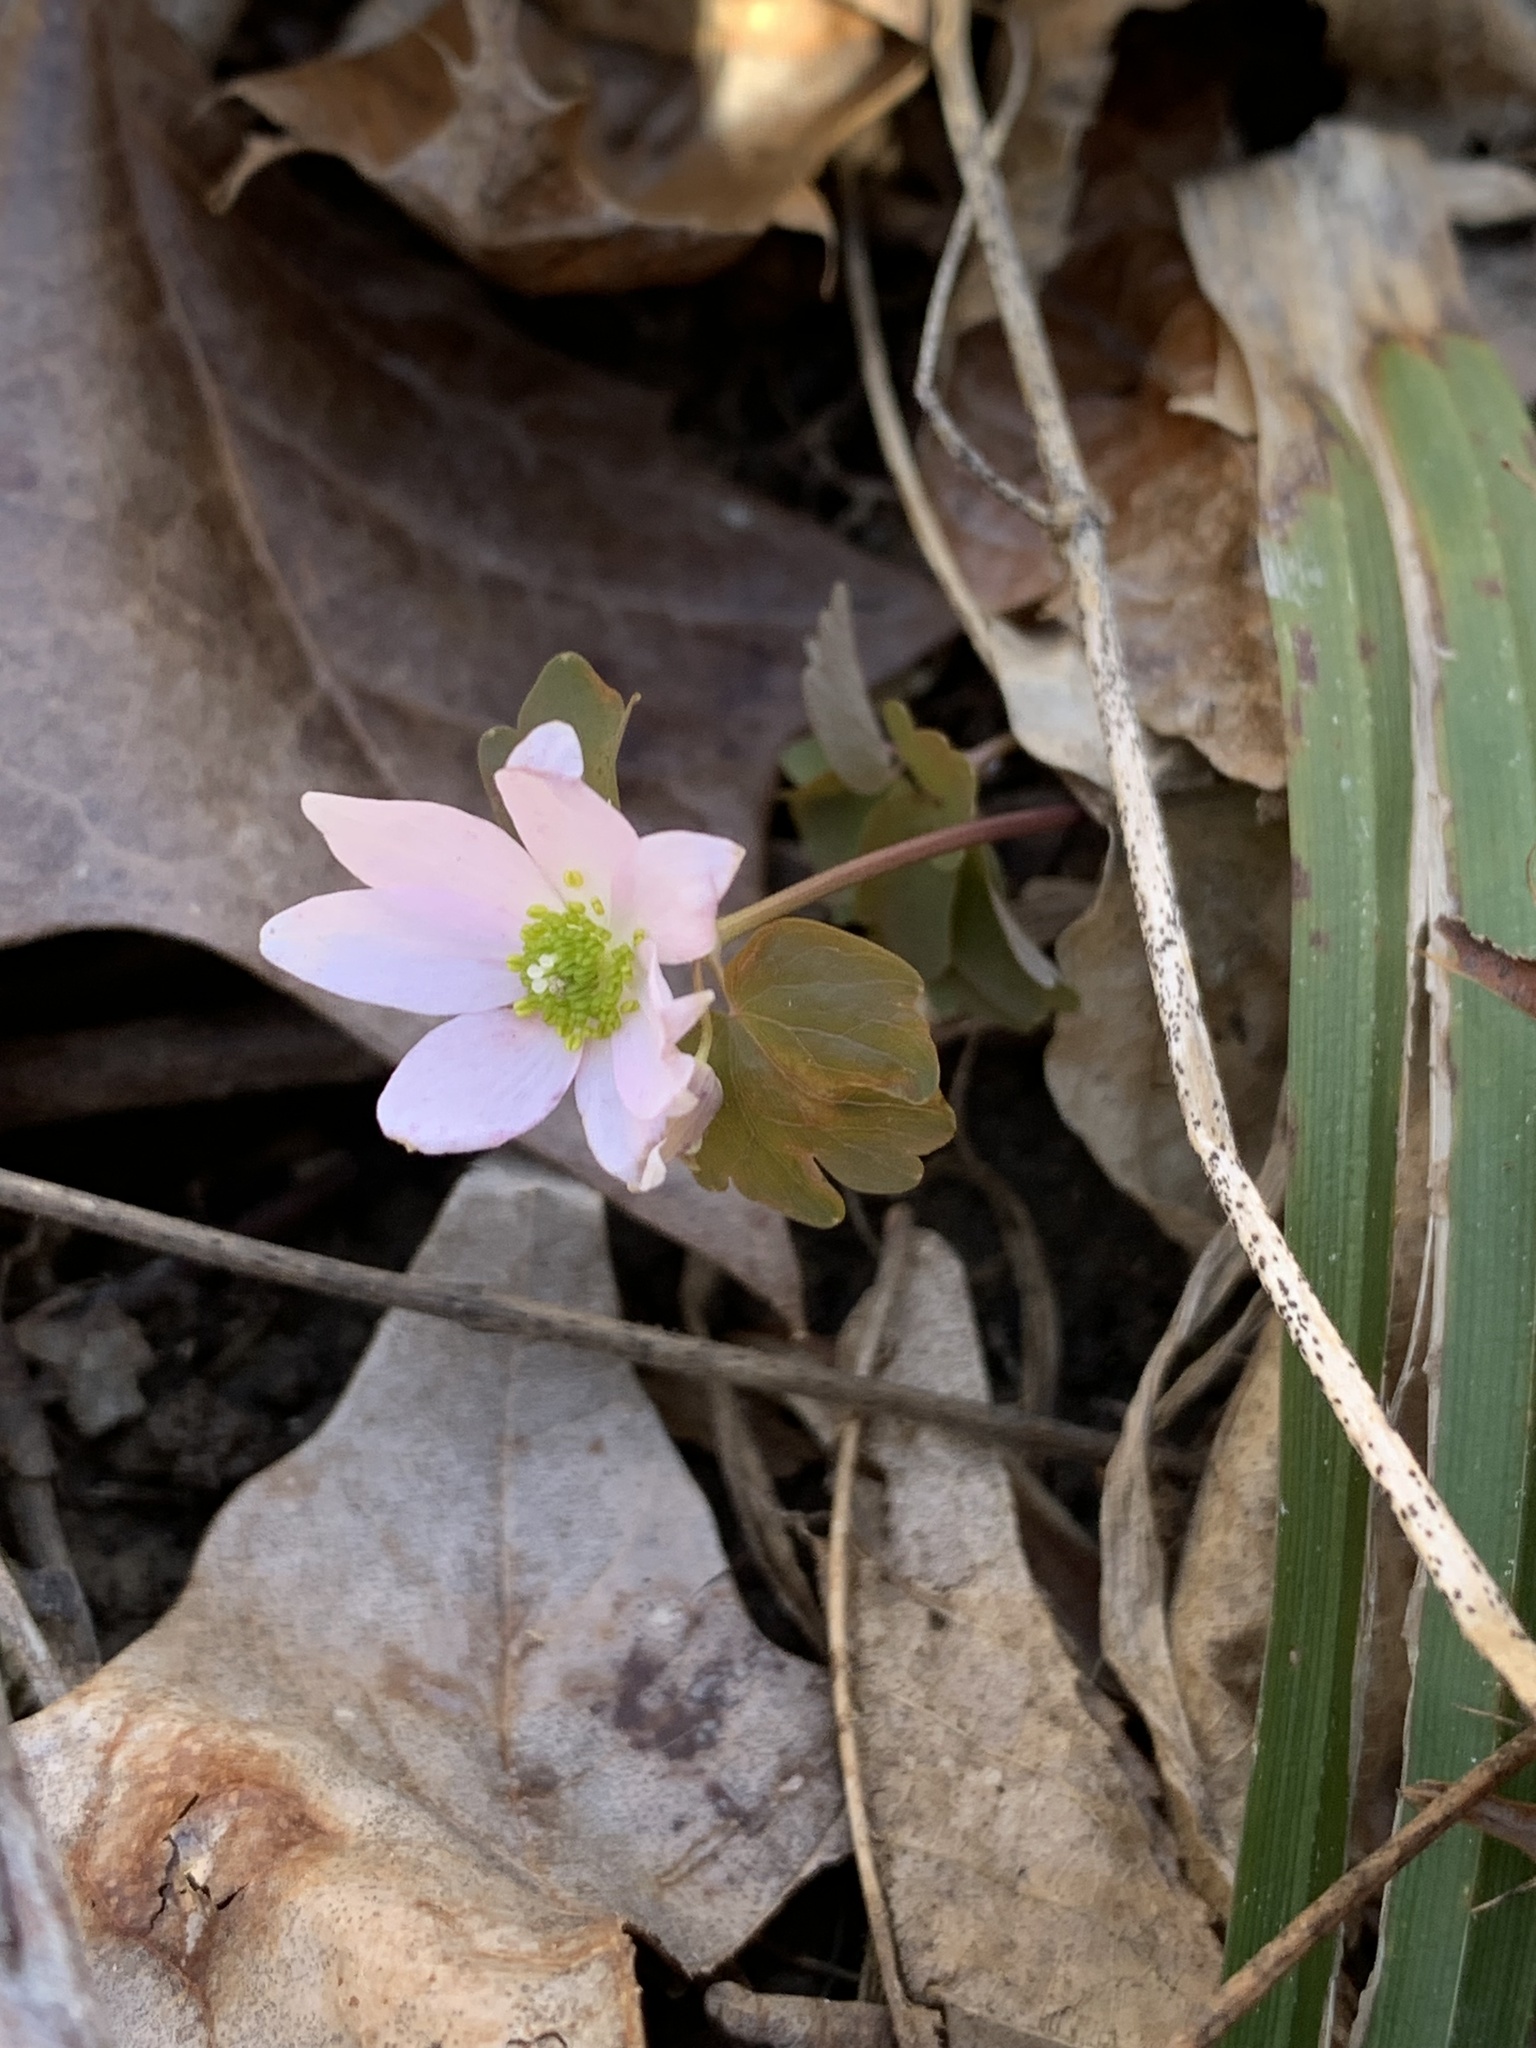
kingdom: Plantae
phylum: Tracheophyta
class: Magnoliopsida
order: Ranunculales
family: Ranunculaceae
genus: Thalictrum
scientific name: Thalictrum thalictroides
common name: Rue-anemone
